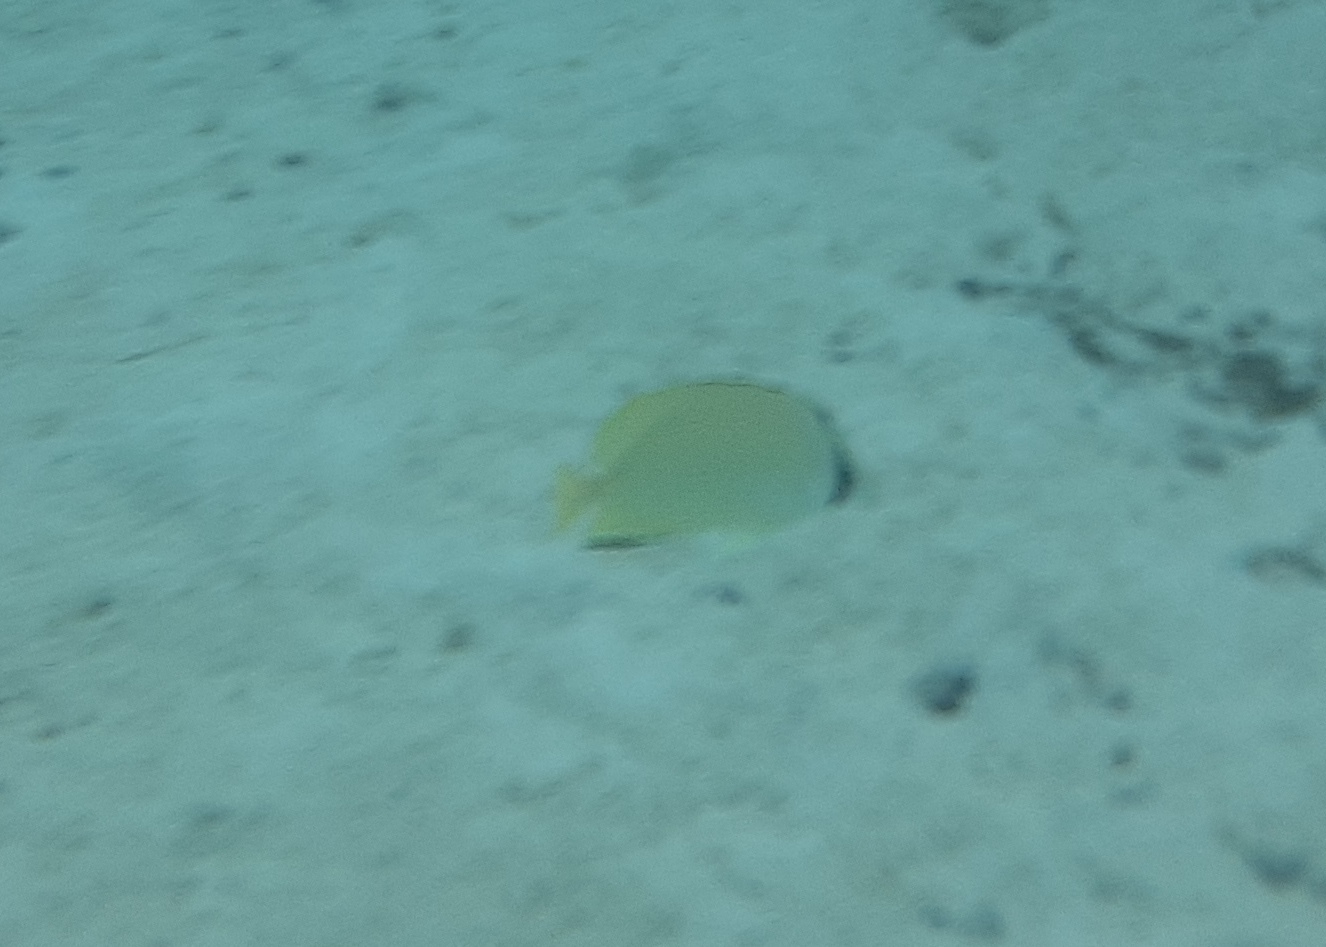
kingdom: Animalia
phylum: Chordata
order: Perciformes
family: Chaetodontidae
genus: Chaetodon
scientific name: Chaetodon citrinellus
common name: Speckled butterflyfish
